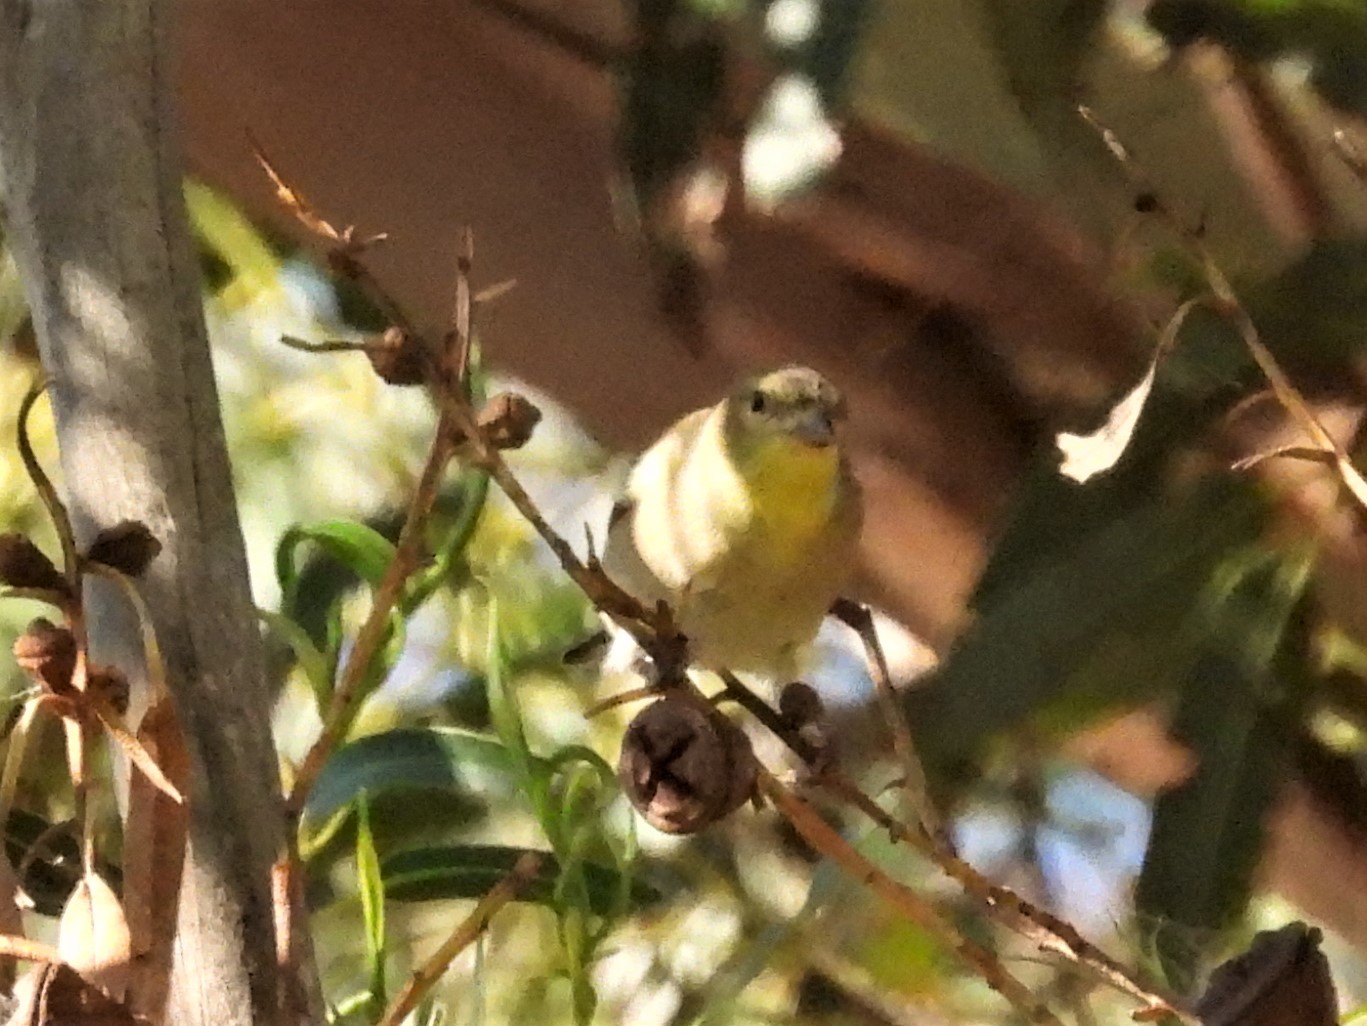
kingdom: Animalia
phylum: Chordata
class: Aves
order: Passeriformes
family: Parulidae
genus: Geothlypis
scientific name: Geothlypis trichas
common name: Common yellowthroat
